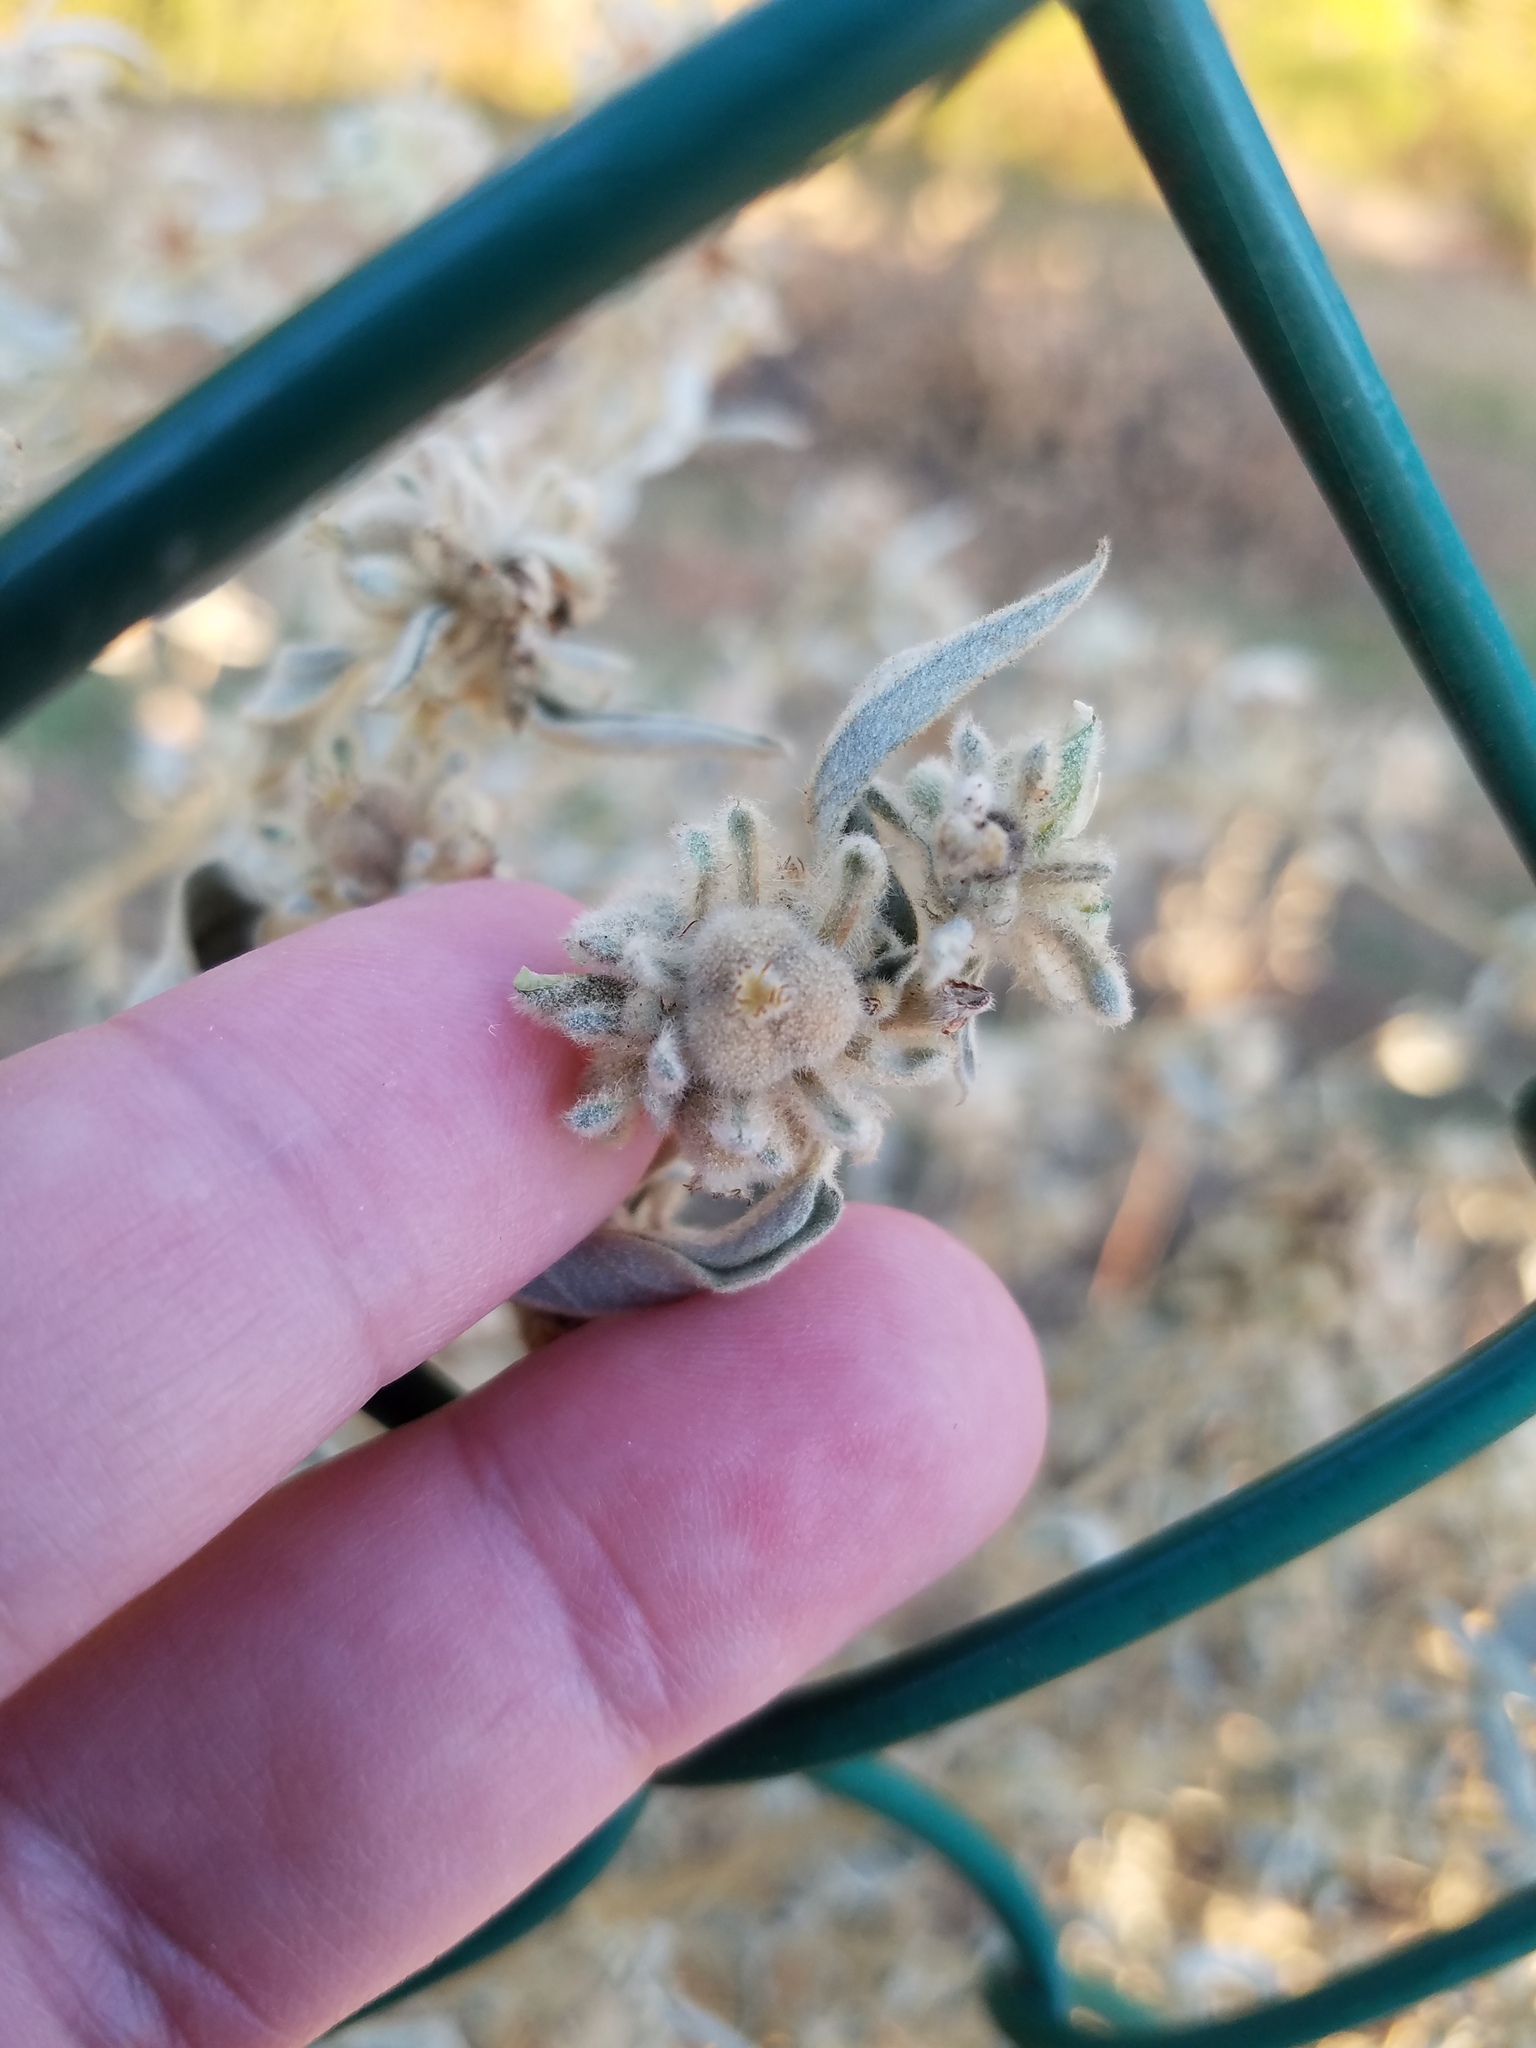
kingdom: Plantae
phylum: Tracheophyta
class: Magnoliopsida
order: Malpighiales
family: Euphorbiaceae
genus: Croton
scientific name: Croton lindheimeri
